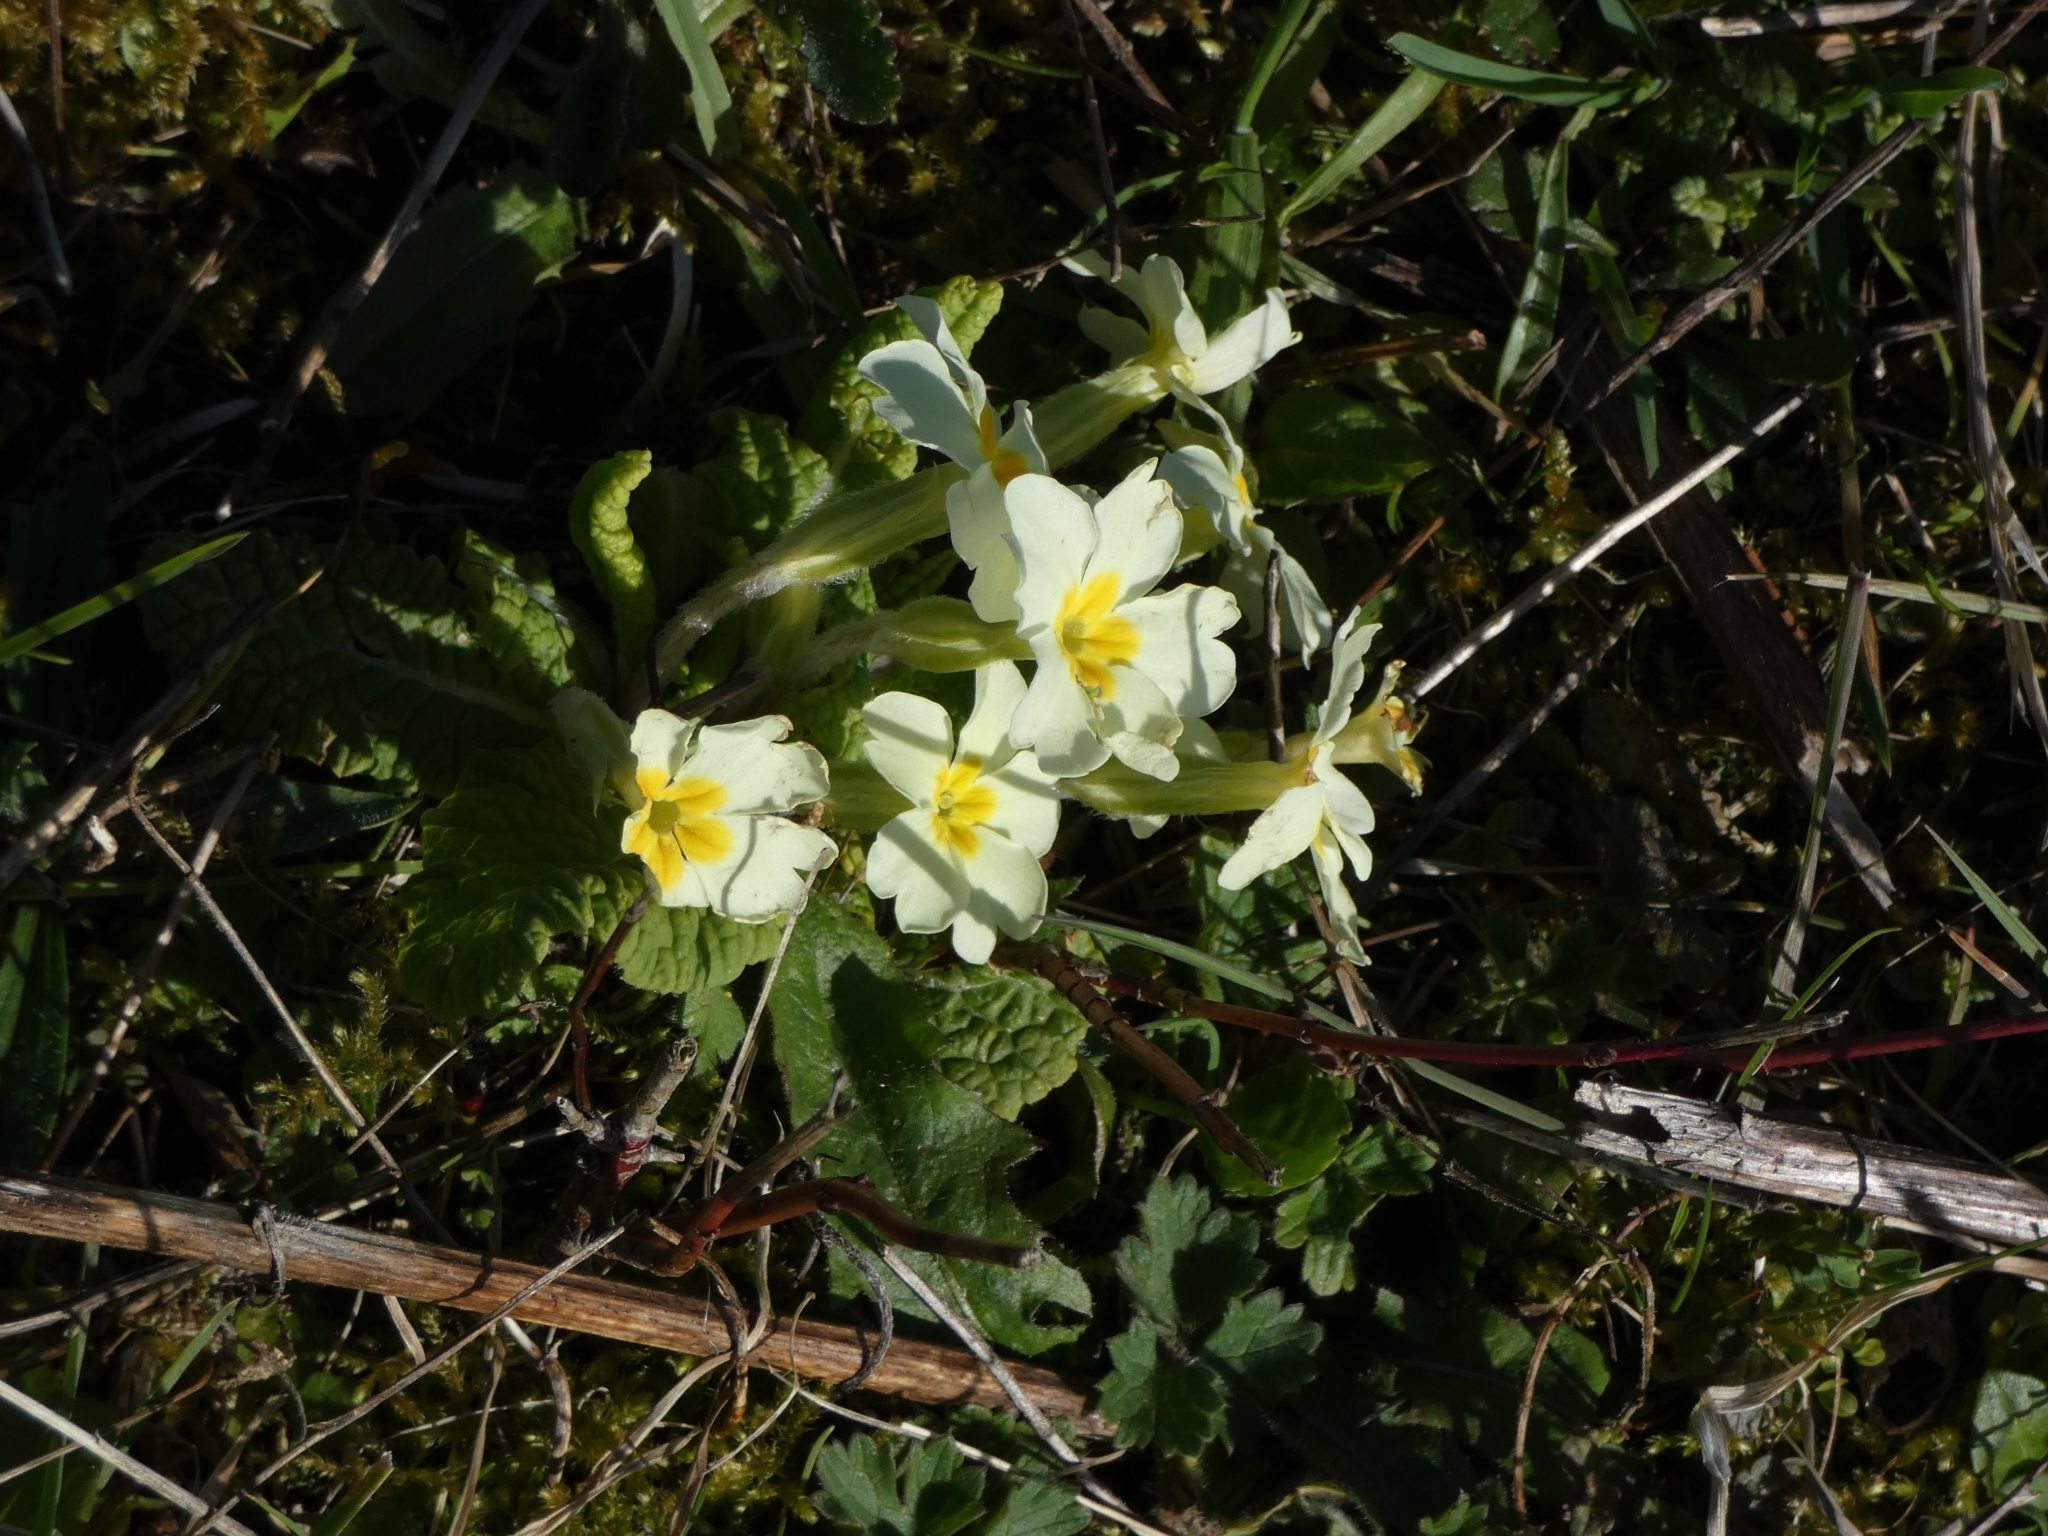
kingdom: Plantae
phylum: Tracheophyta
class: Magnoliopsida
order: Ericales
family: Primulaceae
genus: Primula
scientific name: Primula vulgaris
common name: Primrose
